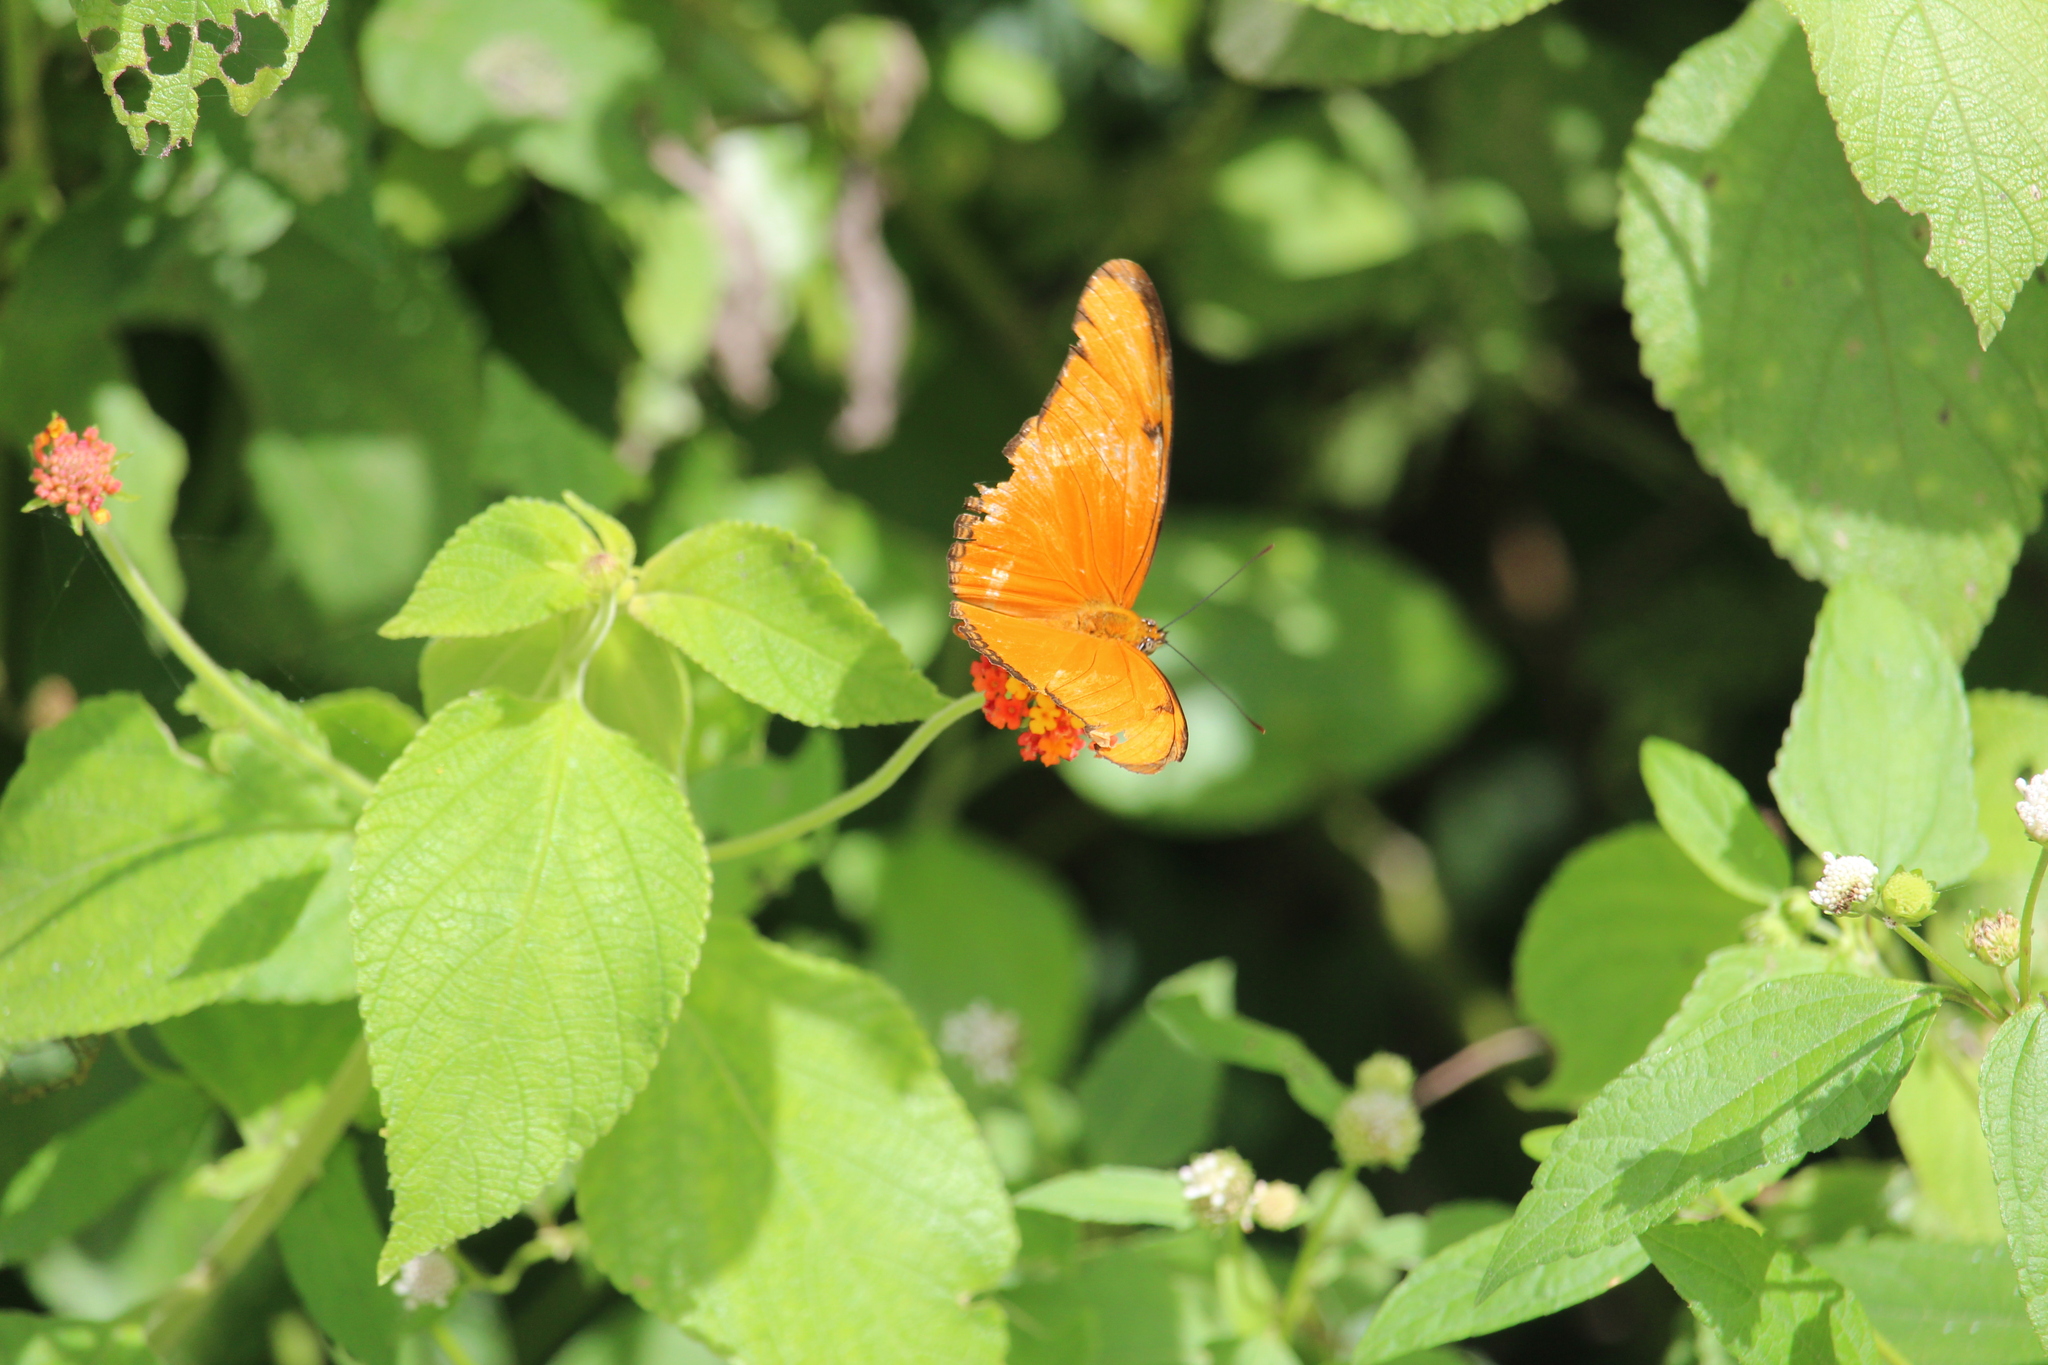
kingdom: Animalia
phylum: Arthropoda
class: Insecta
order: Lepidoptera
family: Nymphalidae
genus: Dryas
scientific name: Dryas iulia
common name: Flambeau
